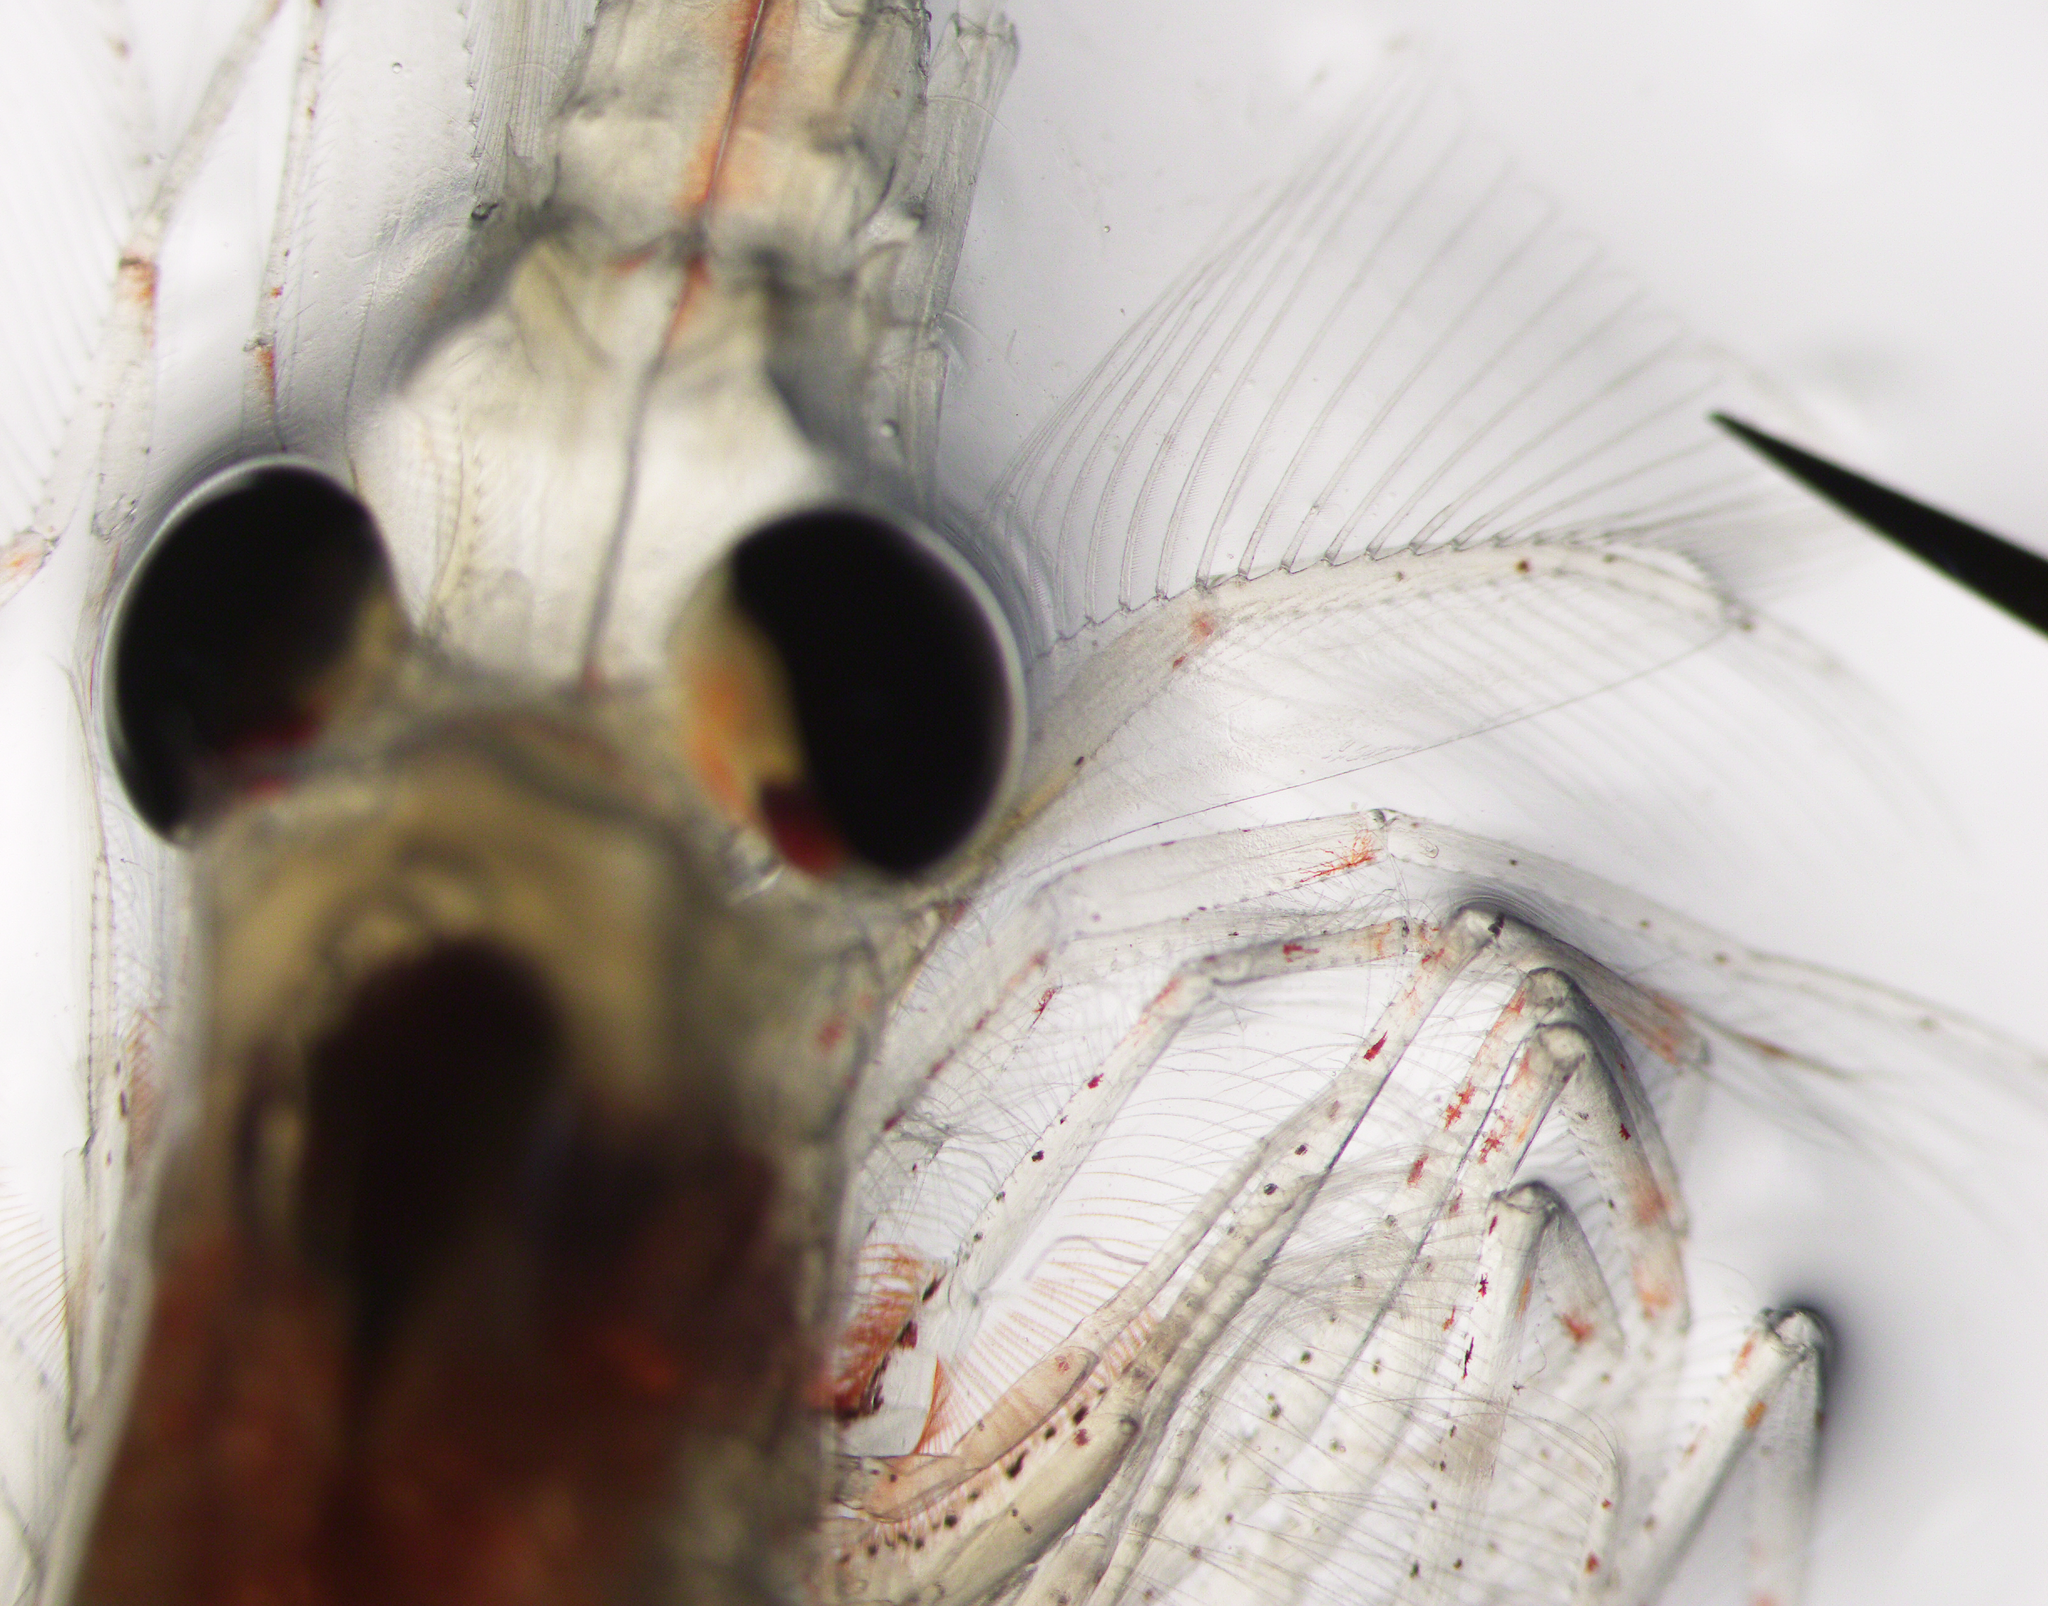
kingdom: Animalia
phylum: Arthropoda
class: Malacostraca
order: Euphausiacea
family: Euphausiidae
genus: Meganyctiphanes
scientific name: Meganyctiphanes norvegica
